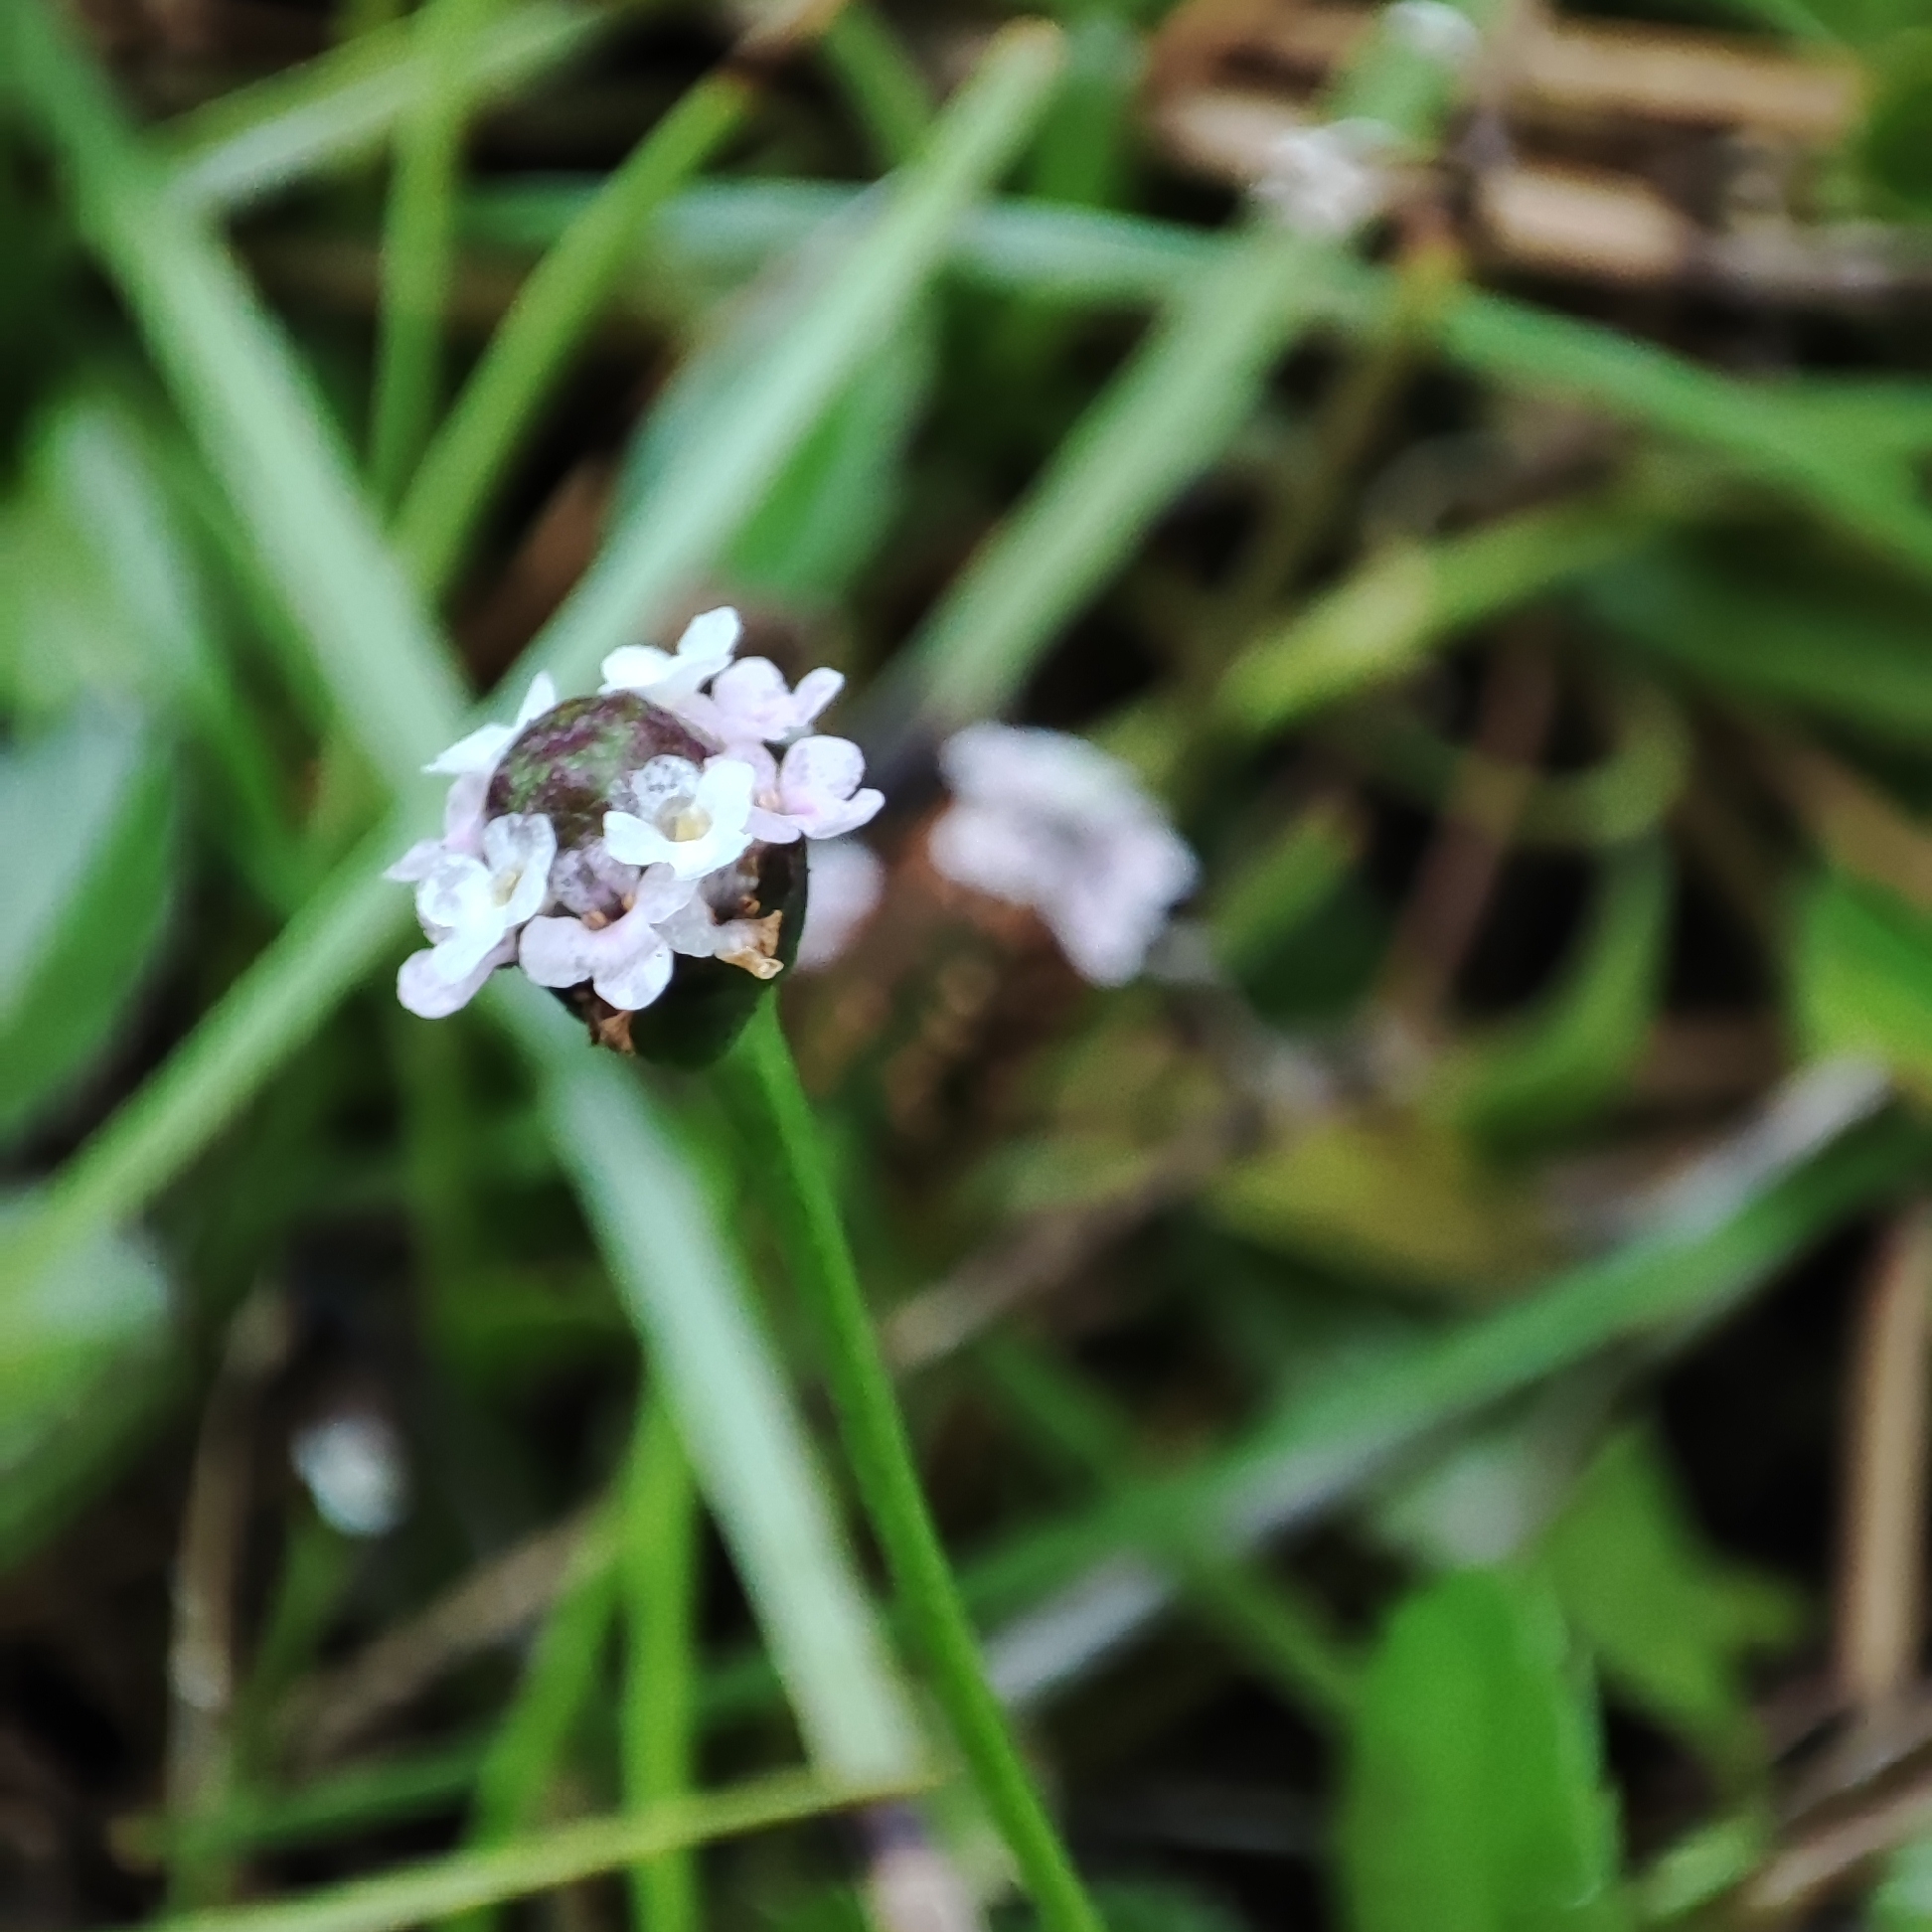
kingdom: Plantae
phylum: Tracheophyta
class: Magnoliopsida
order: Lamiales
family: Verbenaceae
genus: Phyla
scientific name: Phyla nodiflora
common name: Frogfruit
